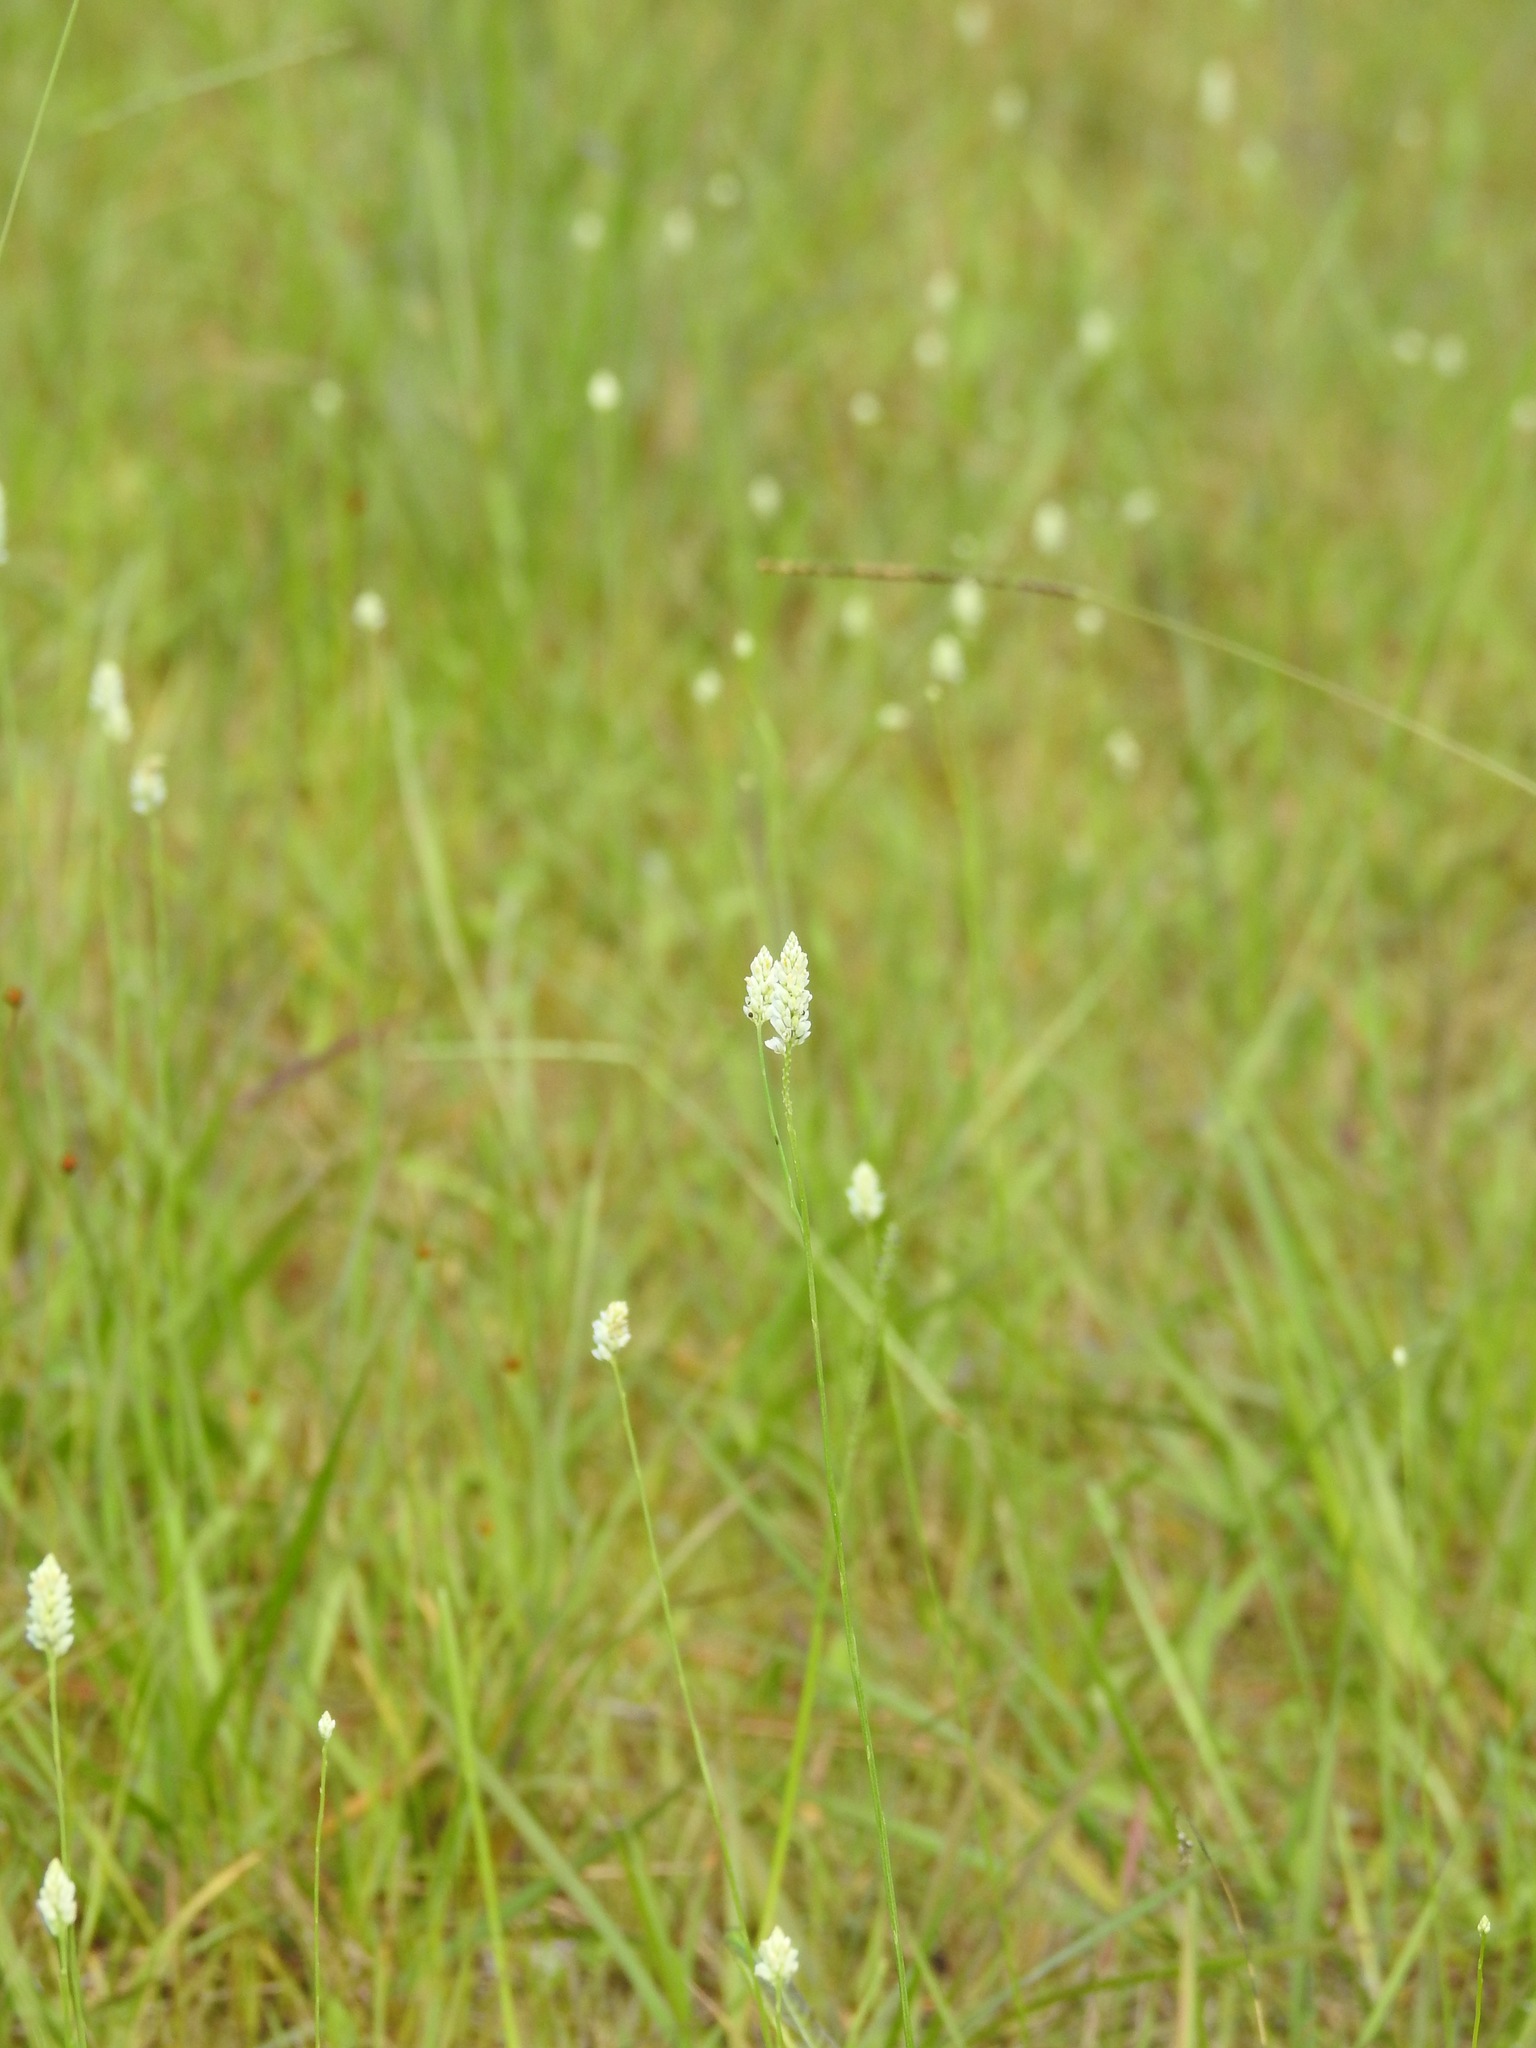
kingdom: Plantae
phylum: Tracheophyta
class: Magnoliopsida
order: Fabales
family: Polygalaceae
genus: Polygala
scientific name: Polygala setacea
